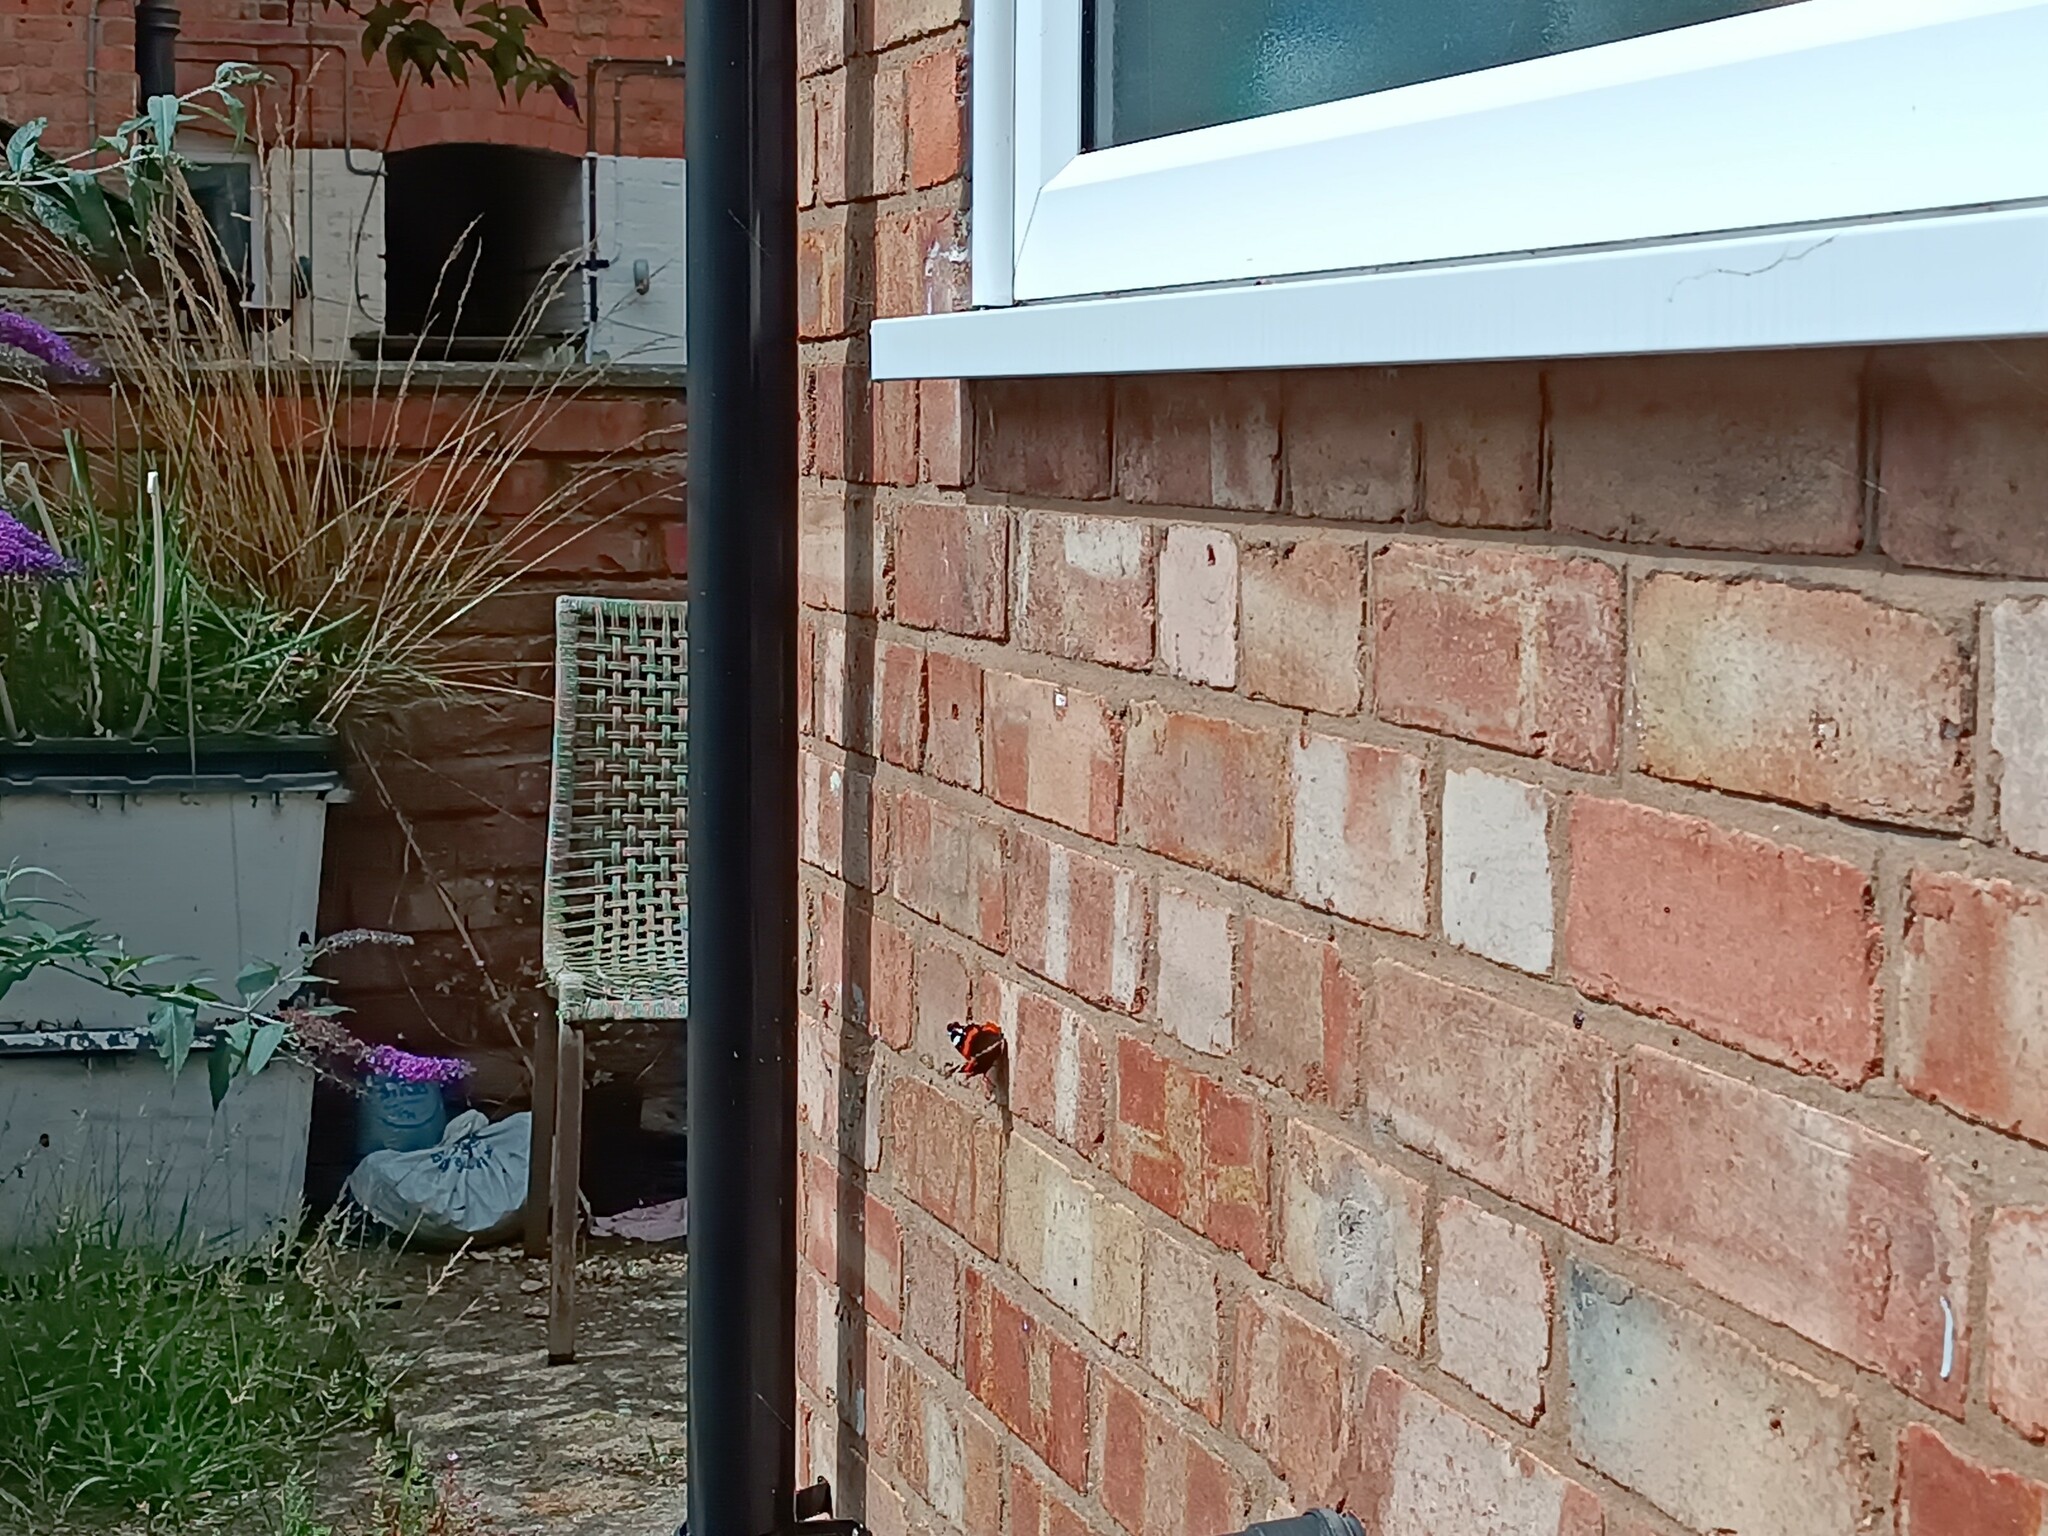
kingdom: Animalia
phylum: Arthropoda
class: Insecta
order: Lepidoptera
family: Nymphalidae
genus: Vanessa
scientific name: Vanessa atalanta
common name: Red admiral
